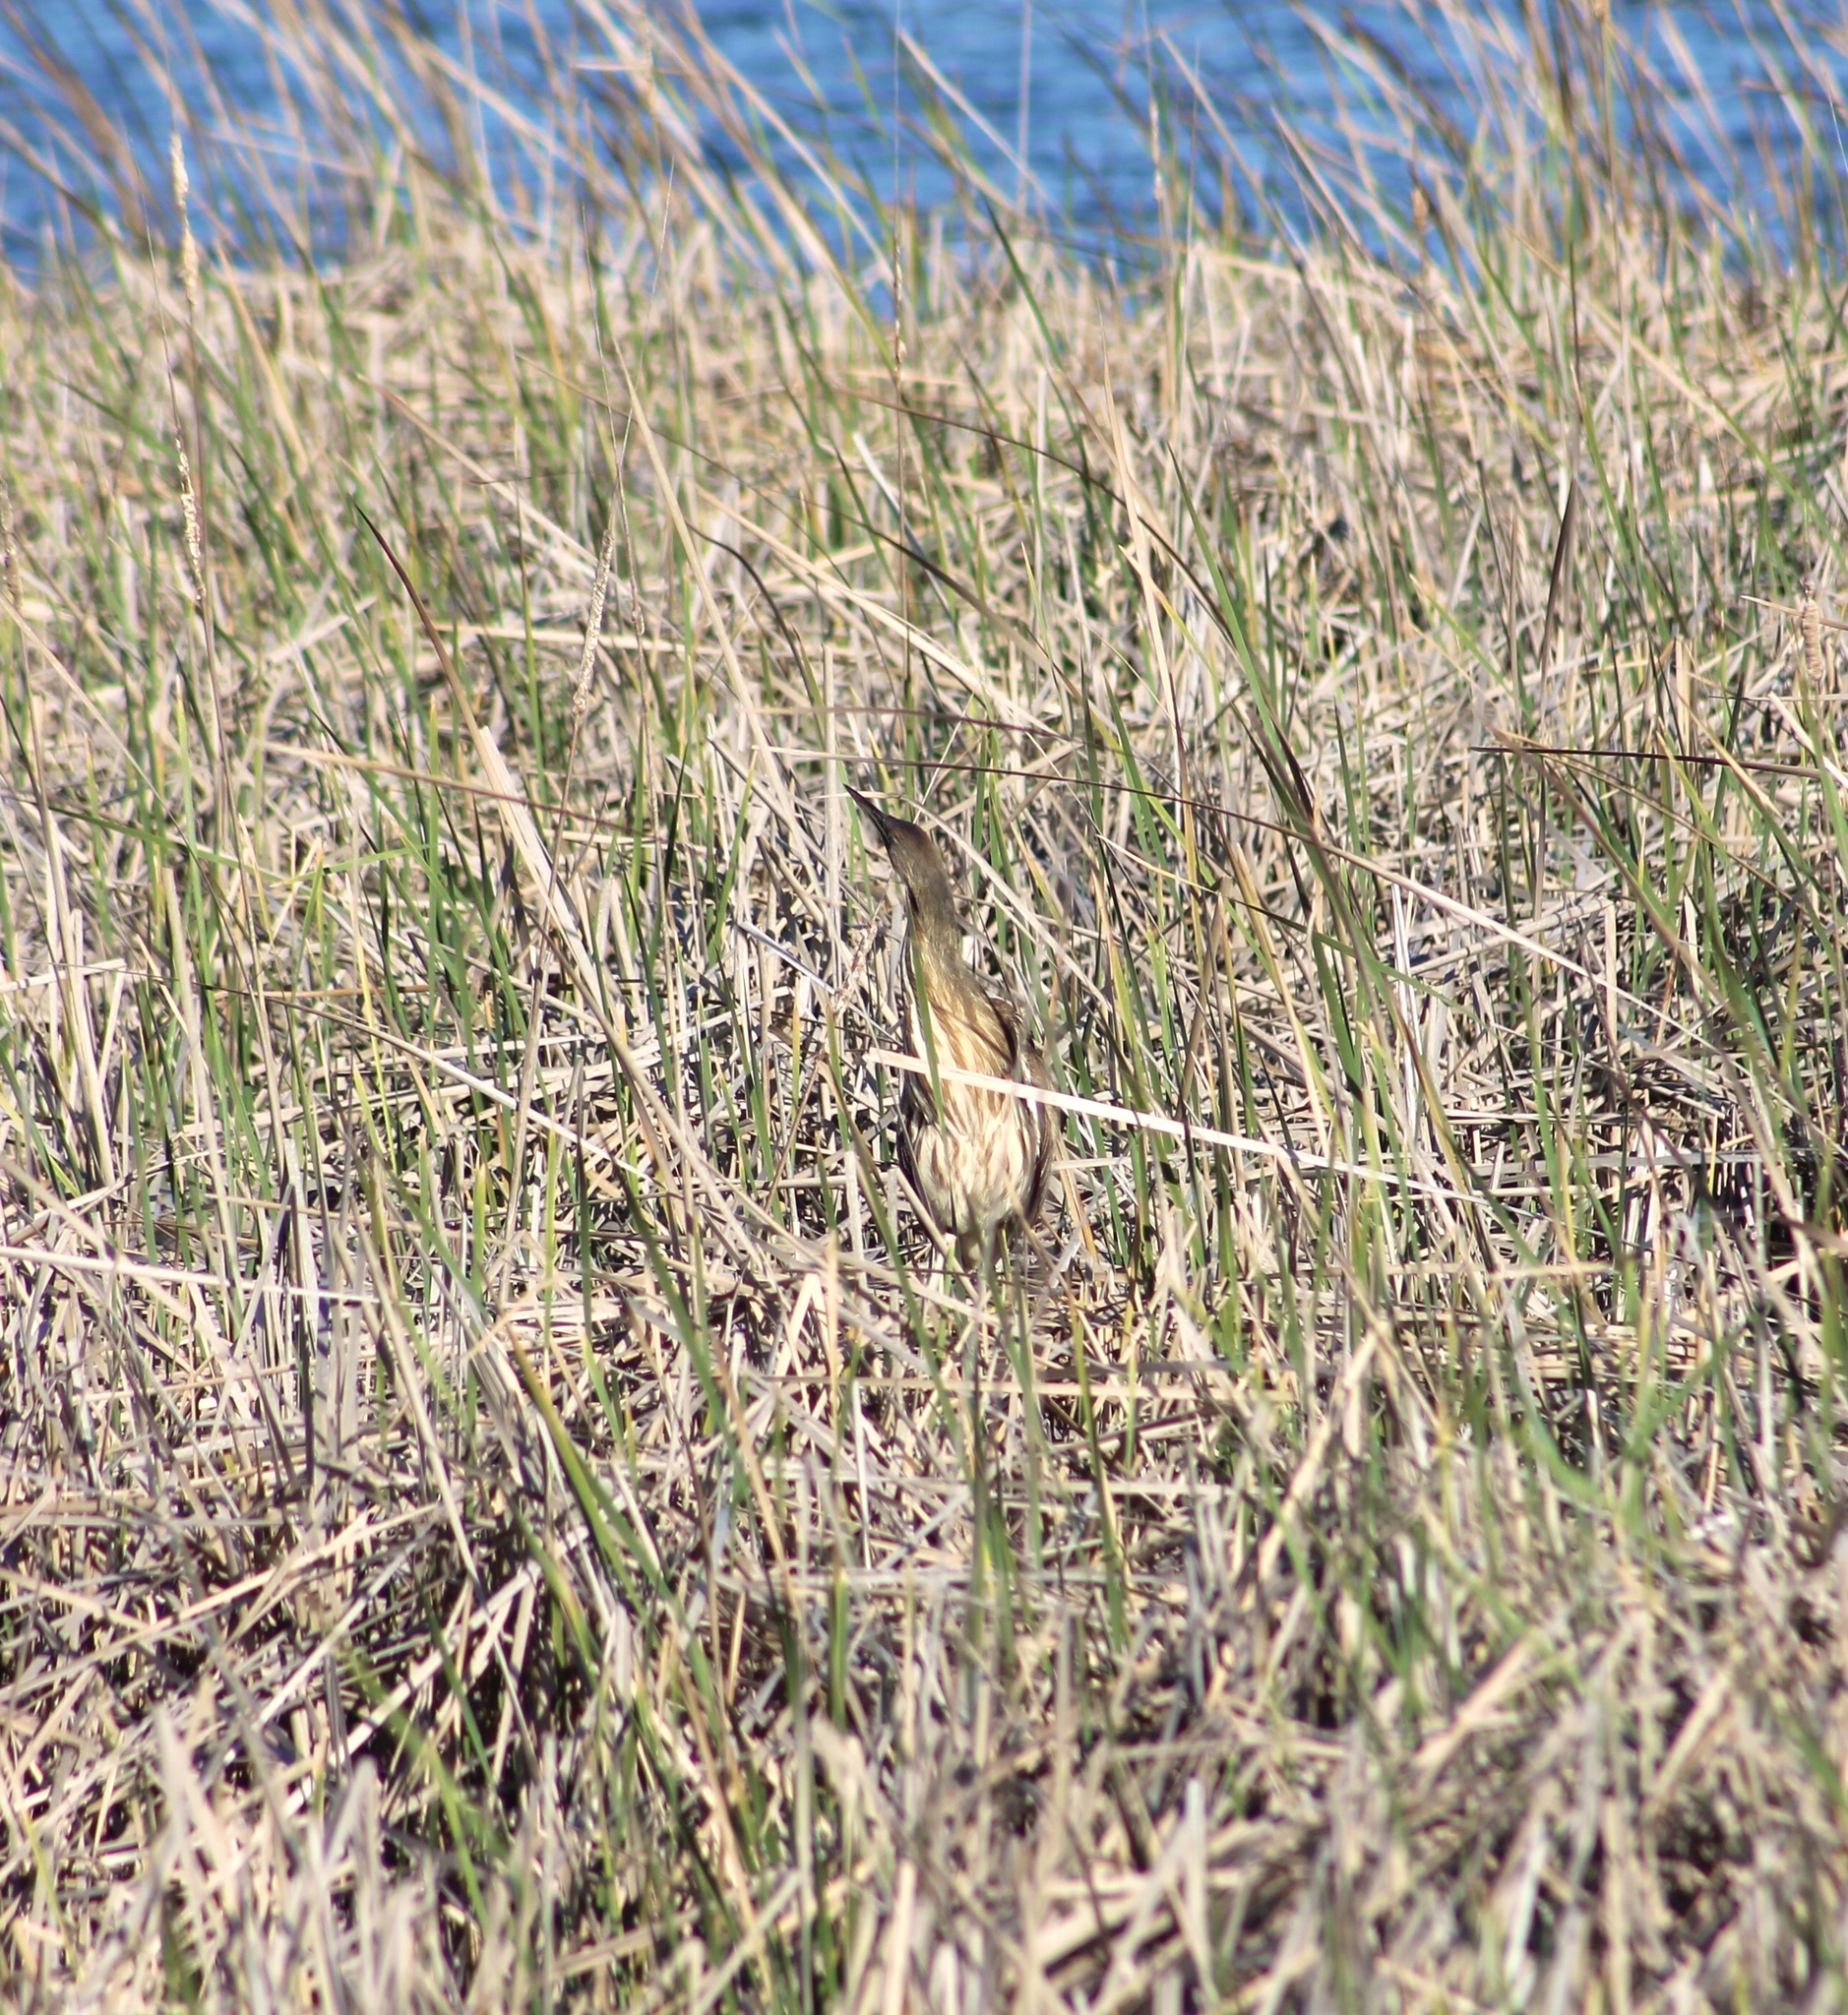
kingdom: Animalia
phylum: Chordata
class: Aves
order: Pelecaniformes
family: Ardeidae
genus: Botaurus
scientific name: Botaurus lentiginosus
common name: American bittern
